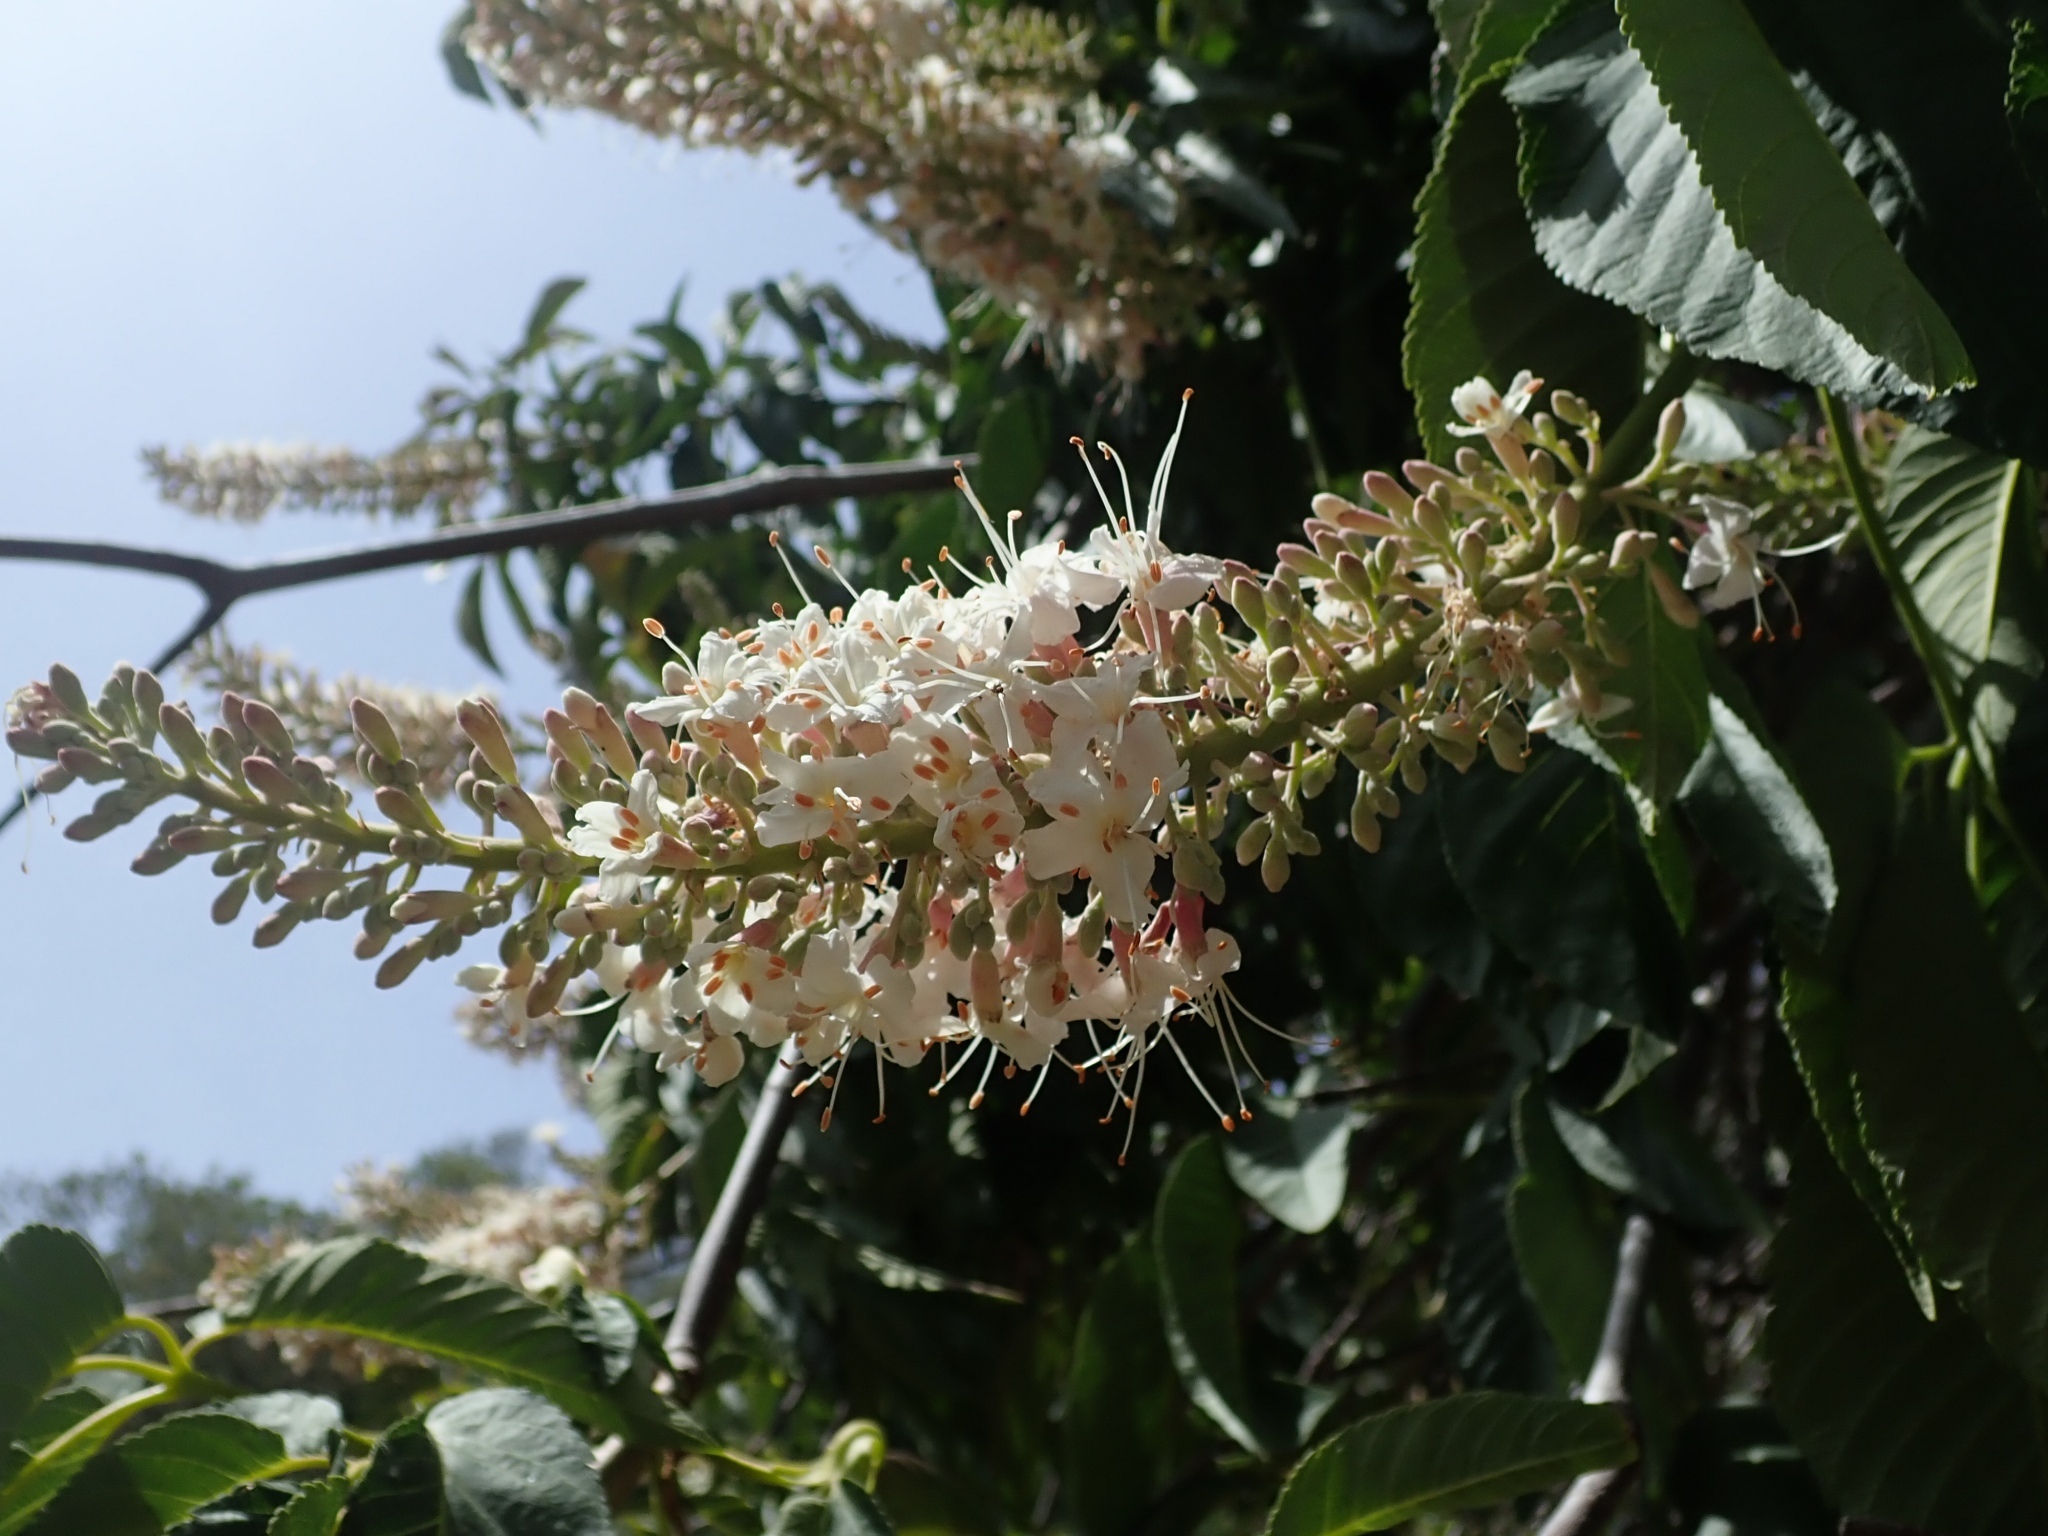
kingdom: Plantae
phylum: Tracheophyta
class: Magnoliopsida
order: Sapindales
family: Sapindaceae
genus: Aesculus
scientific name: Aesculus californica
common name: California buckeye
